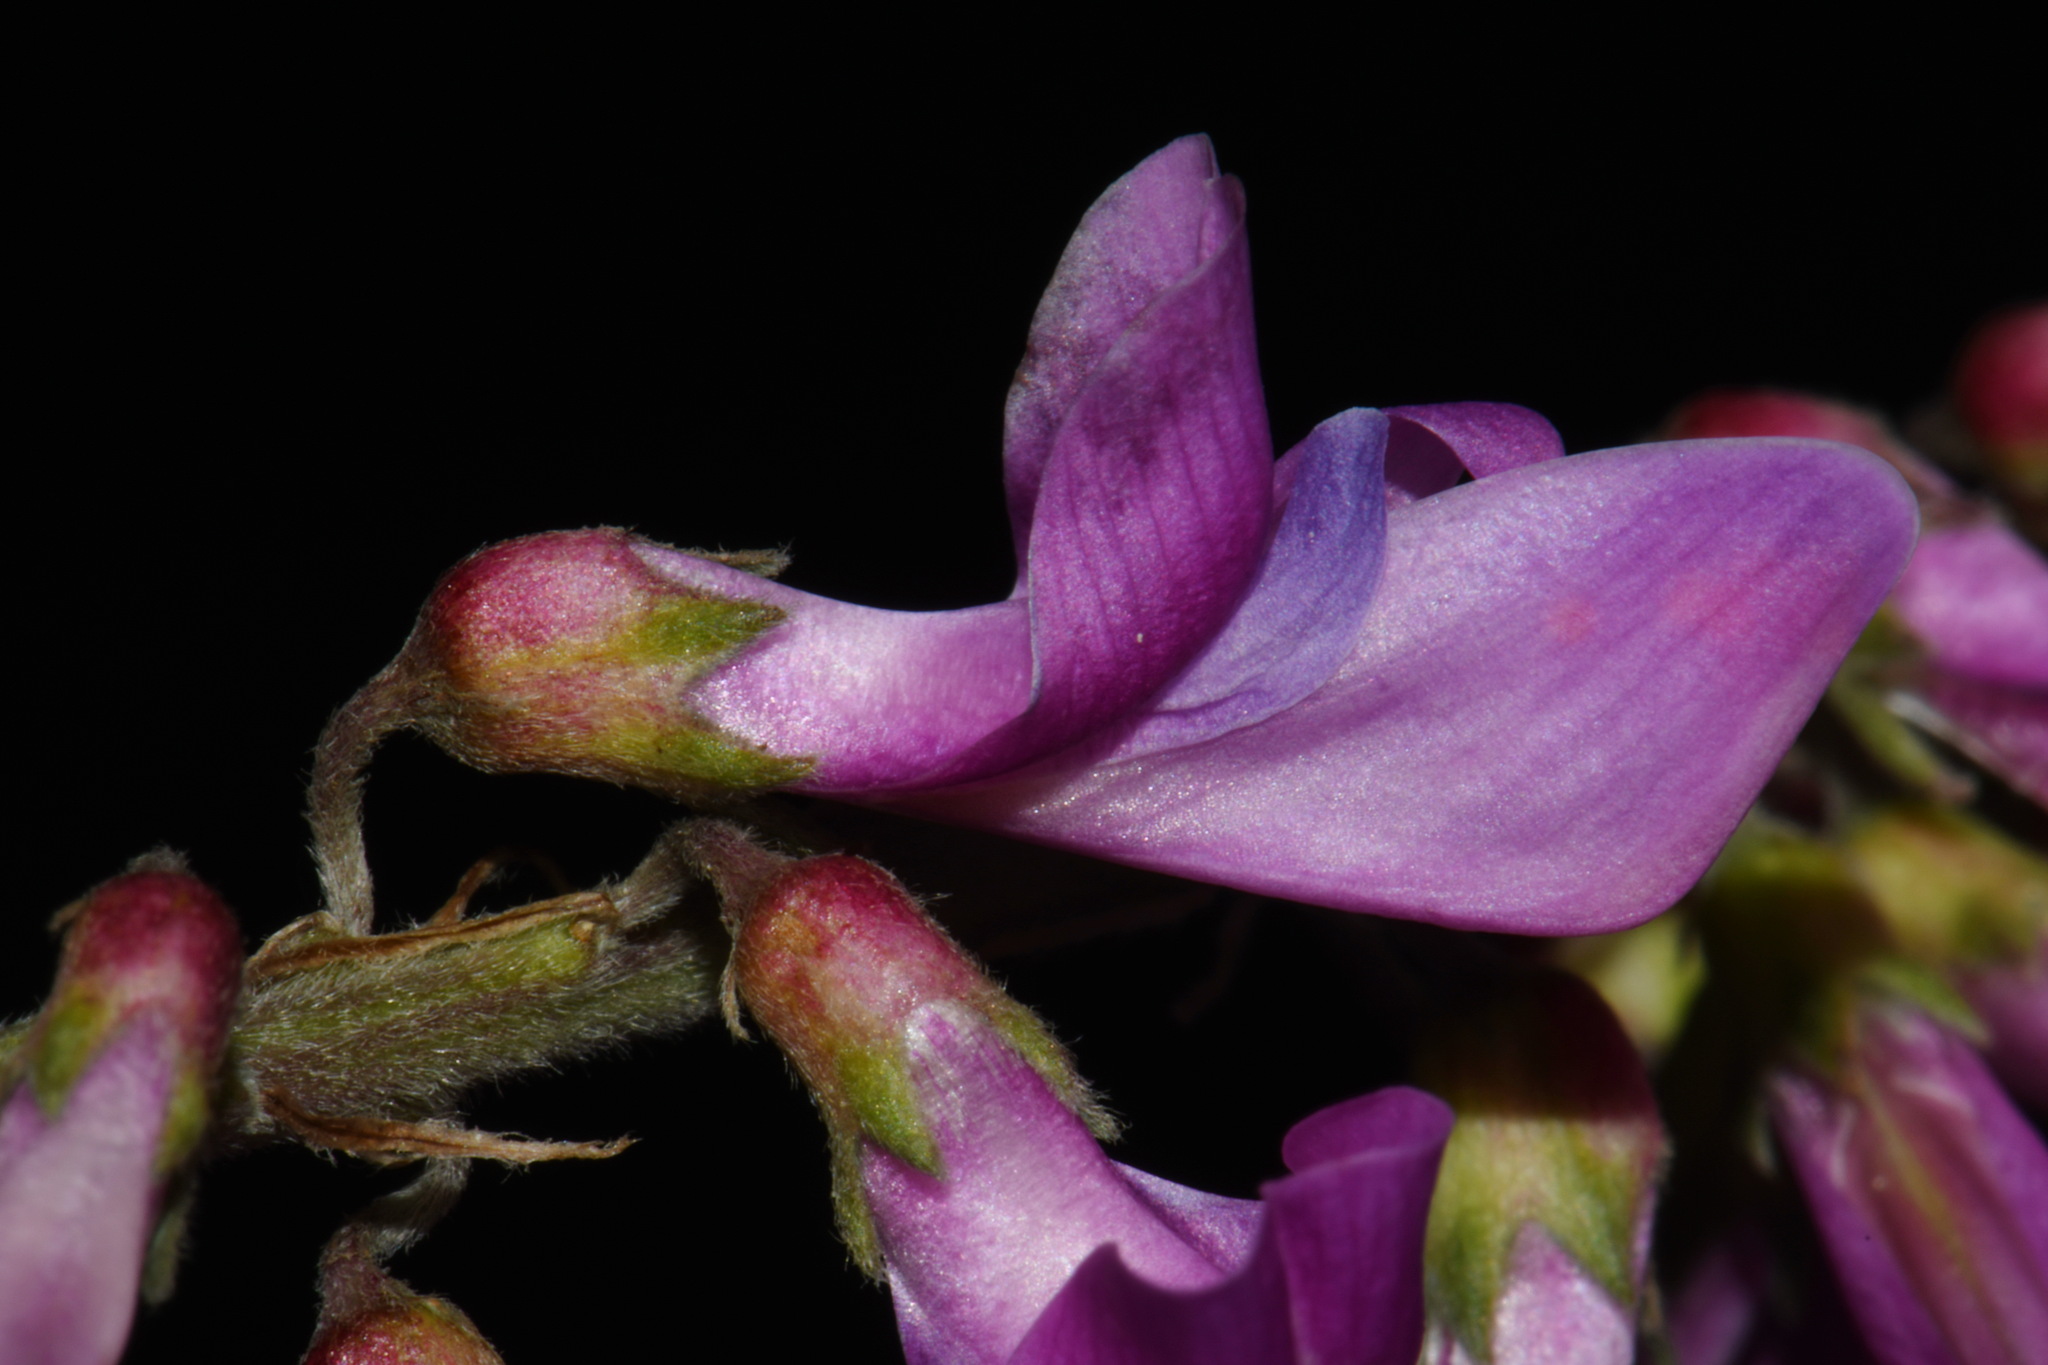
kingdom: Plantae
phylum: Tracheophyta
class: Magnoliopsida
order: Fabales
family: Fabaceae
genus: Hedysarum
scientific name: Hedysarum
